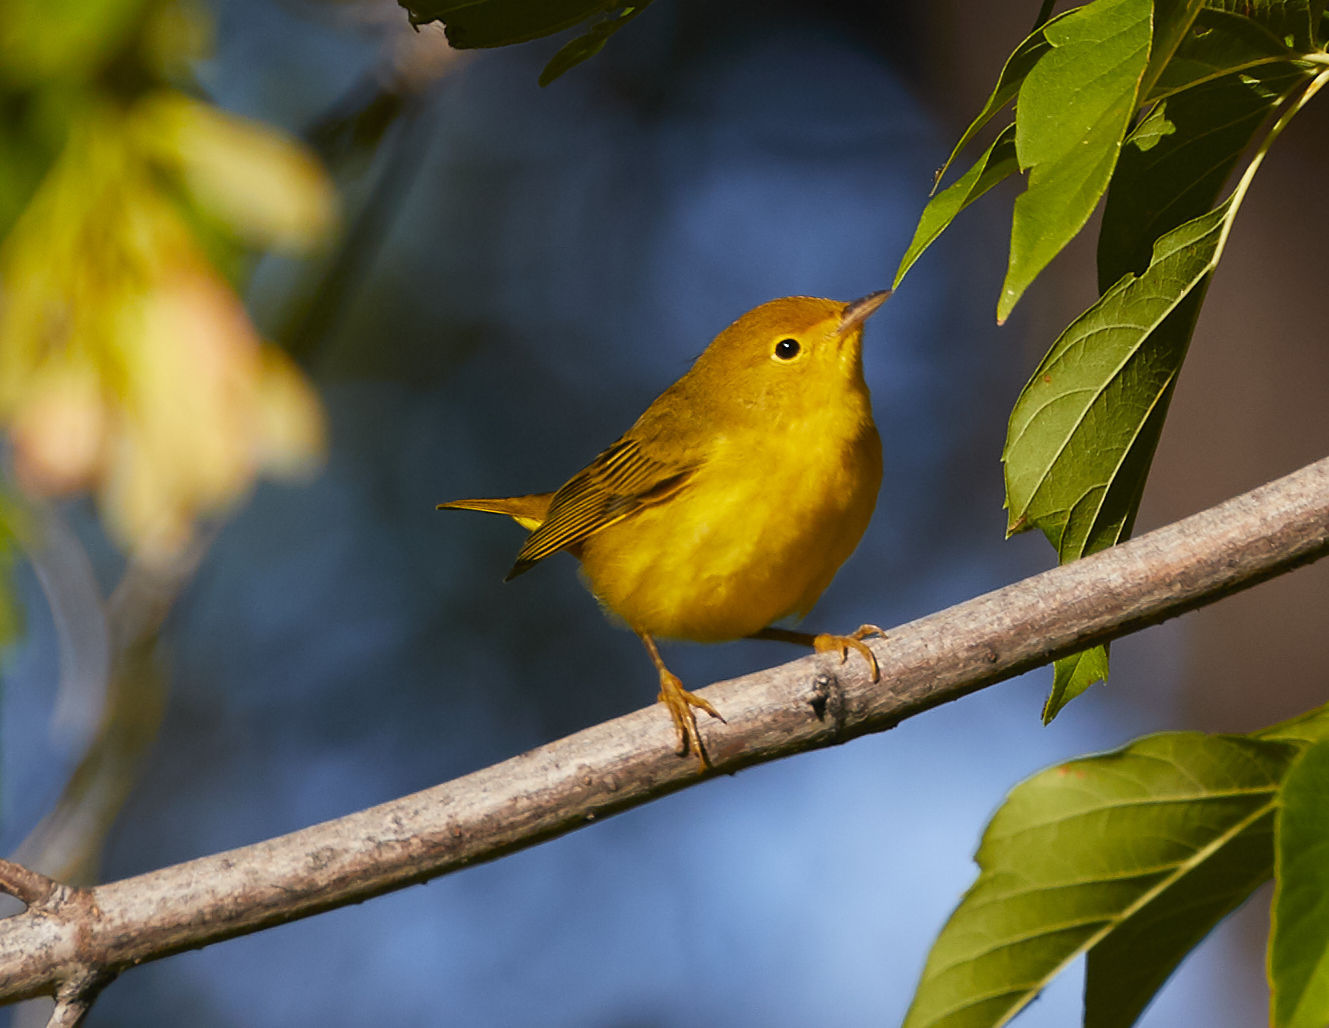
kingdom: Animalia
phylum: Chordata
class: Aves
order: Passeriformes
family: Parulidae
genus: Setophaga
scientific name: Setophaga petechia
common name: Yellow warbler
